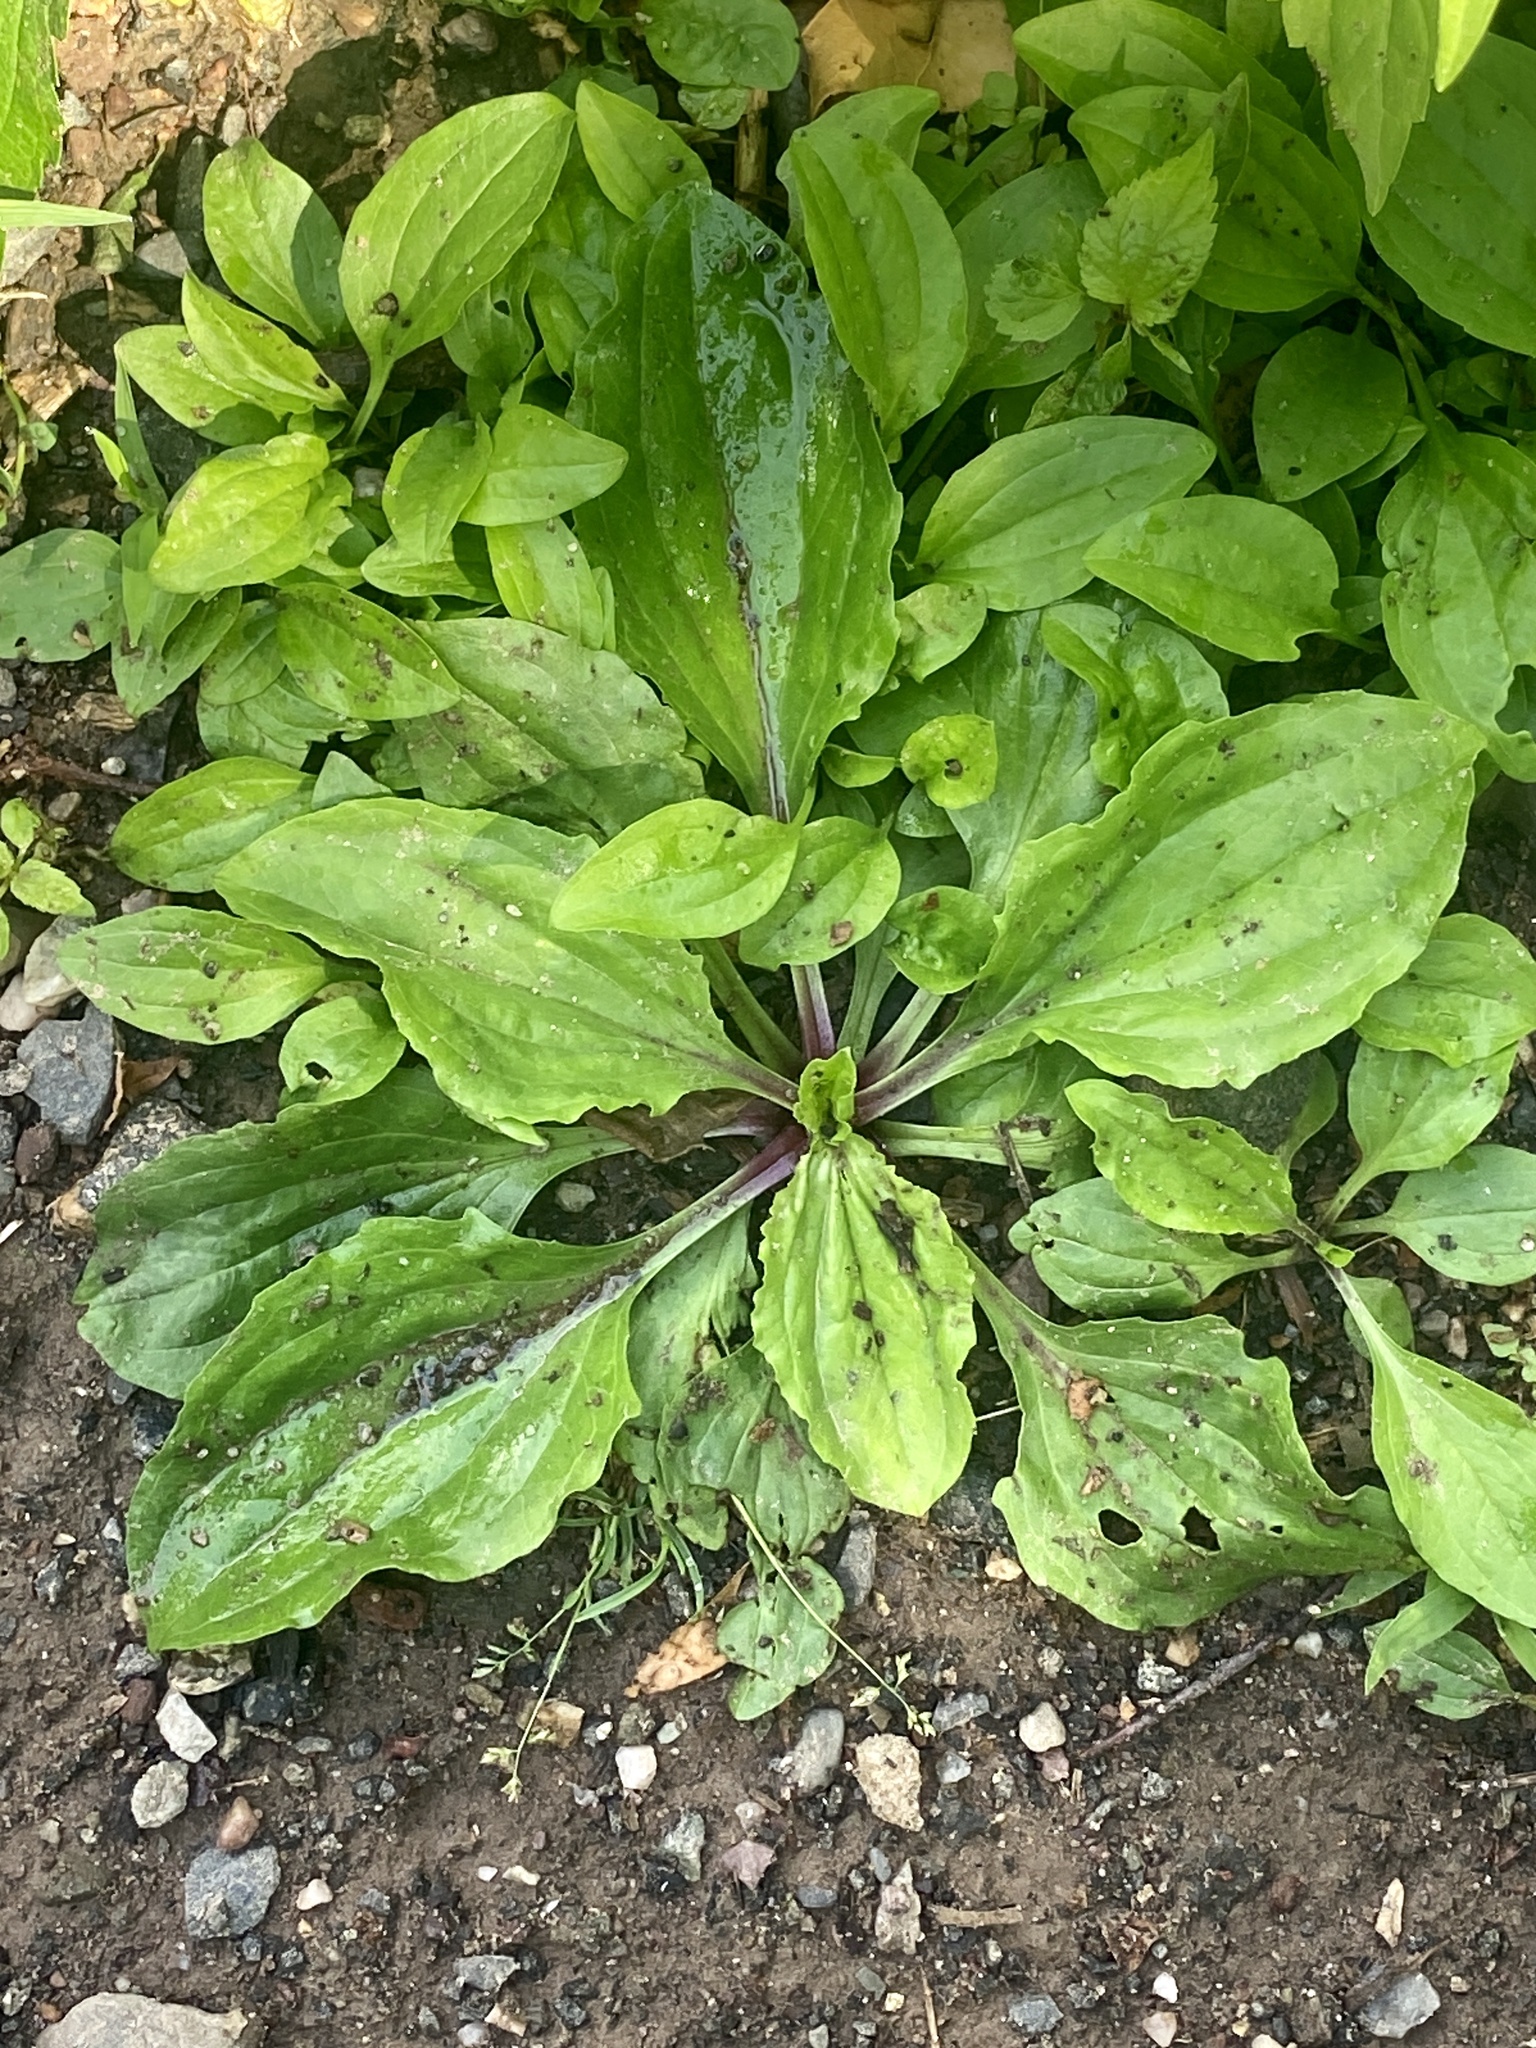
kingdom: Plantae
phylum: Tracheophyta
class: Magnoliopsida
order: Lamiales
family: Plantaginaceae
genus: Plantago
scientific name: Plantago rugelii
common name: American plantain
